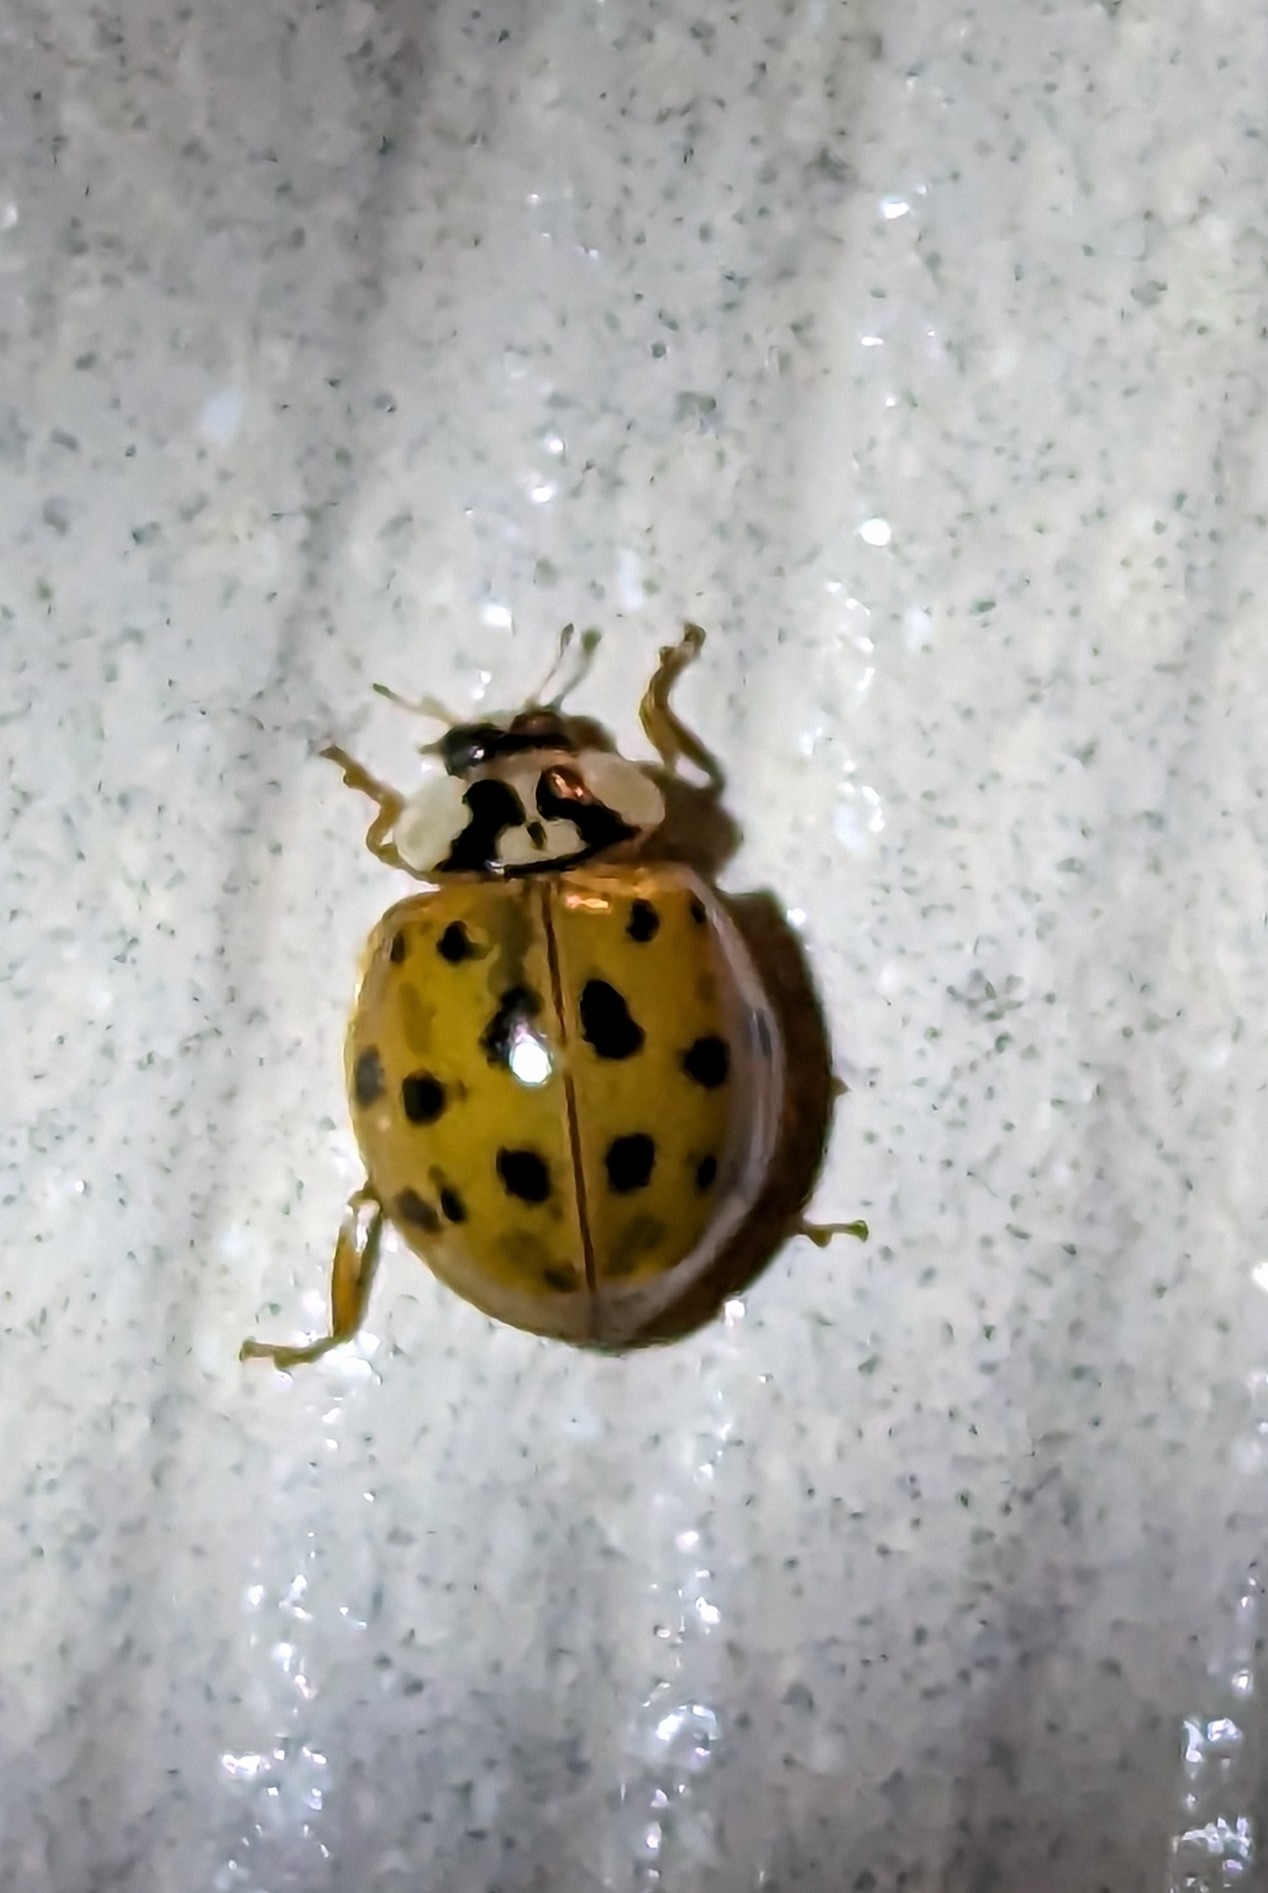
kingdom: Animalia
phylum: Arthropoda
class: Insecta
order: Coleoptera
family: Coccinellidae
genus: Harmonia
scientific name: Harmonia axyridis
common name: Harlequin ladybird
